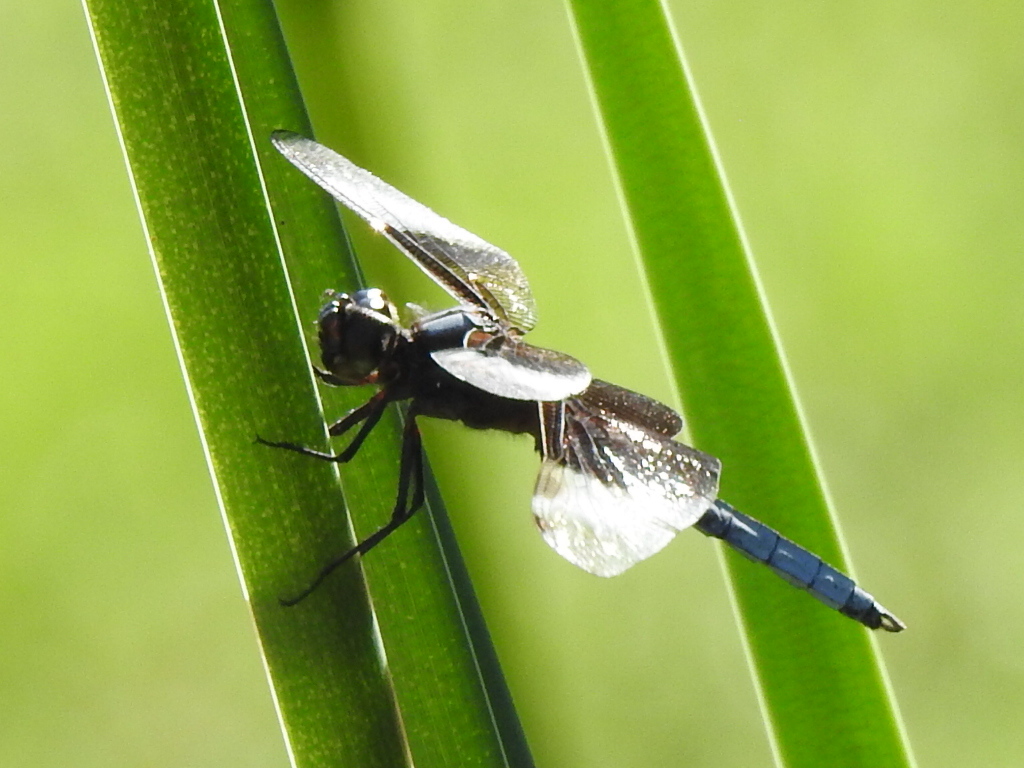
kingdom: Animalia
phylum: Arthropoda
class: Insecta
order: Odonata
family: Libellulidae
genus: Libellula
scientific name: Libellula luctuosa
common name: Widow skimmer
